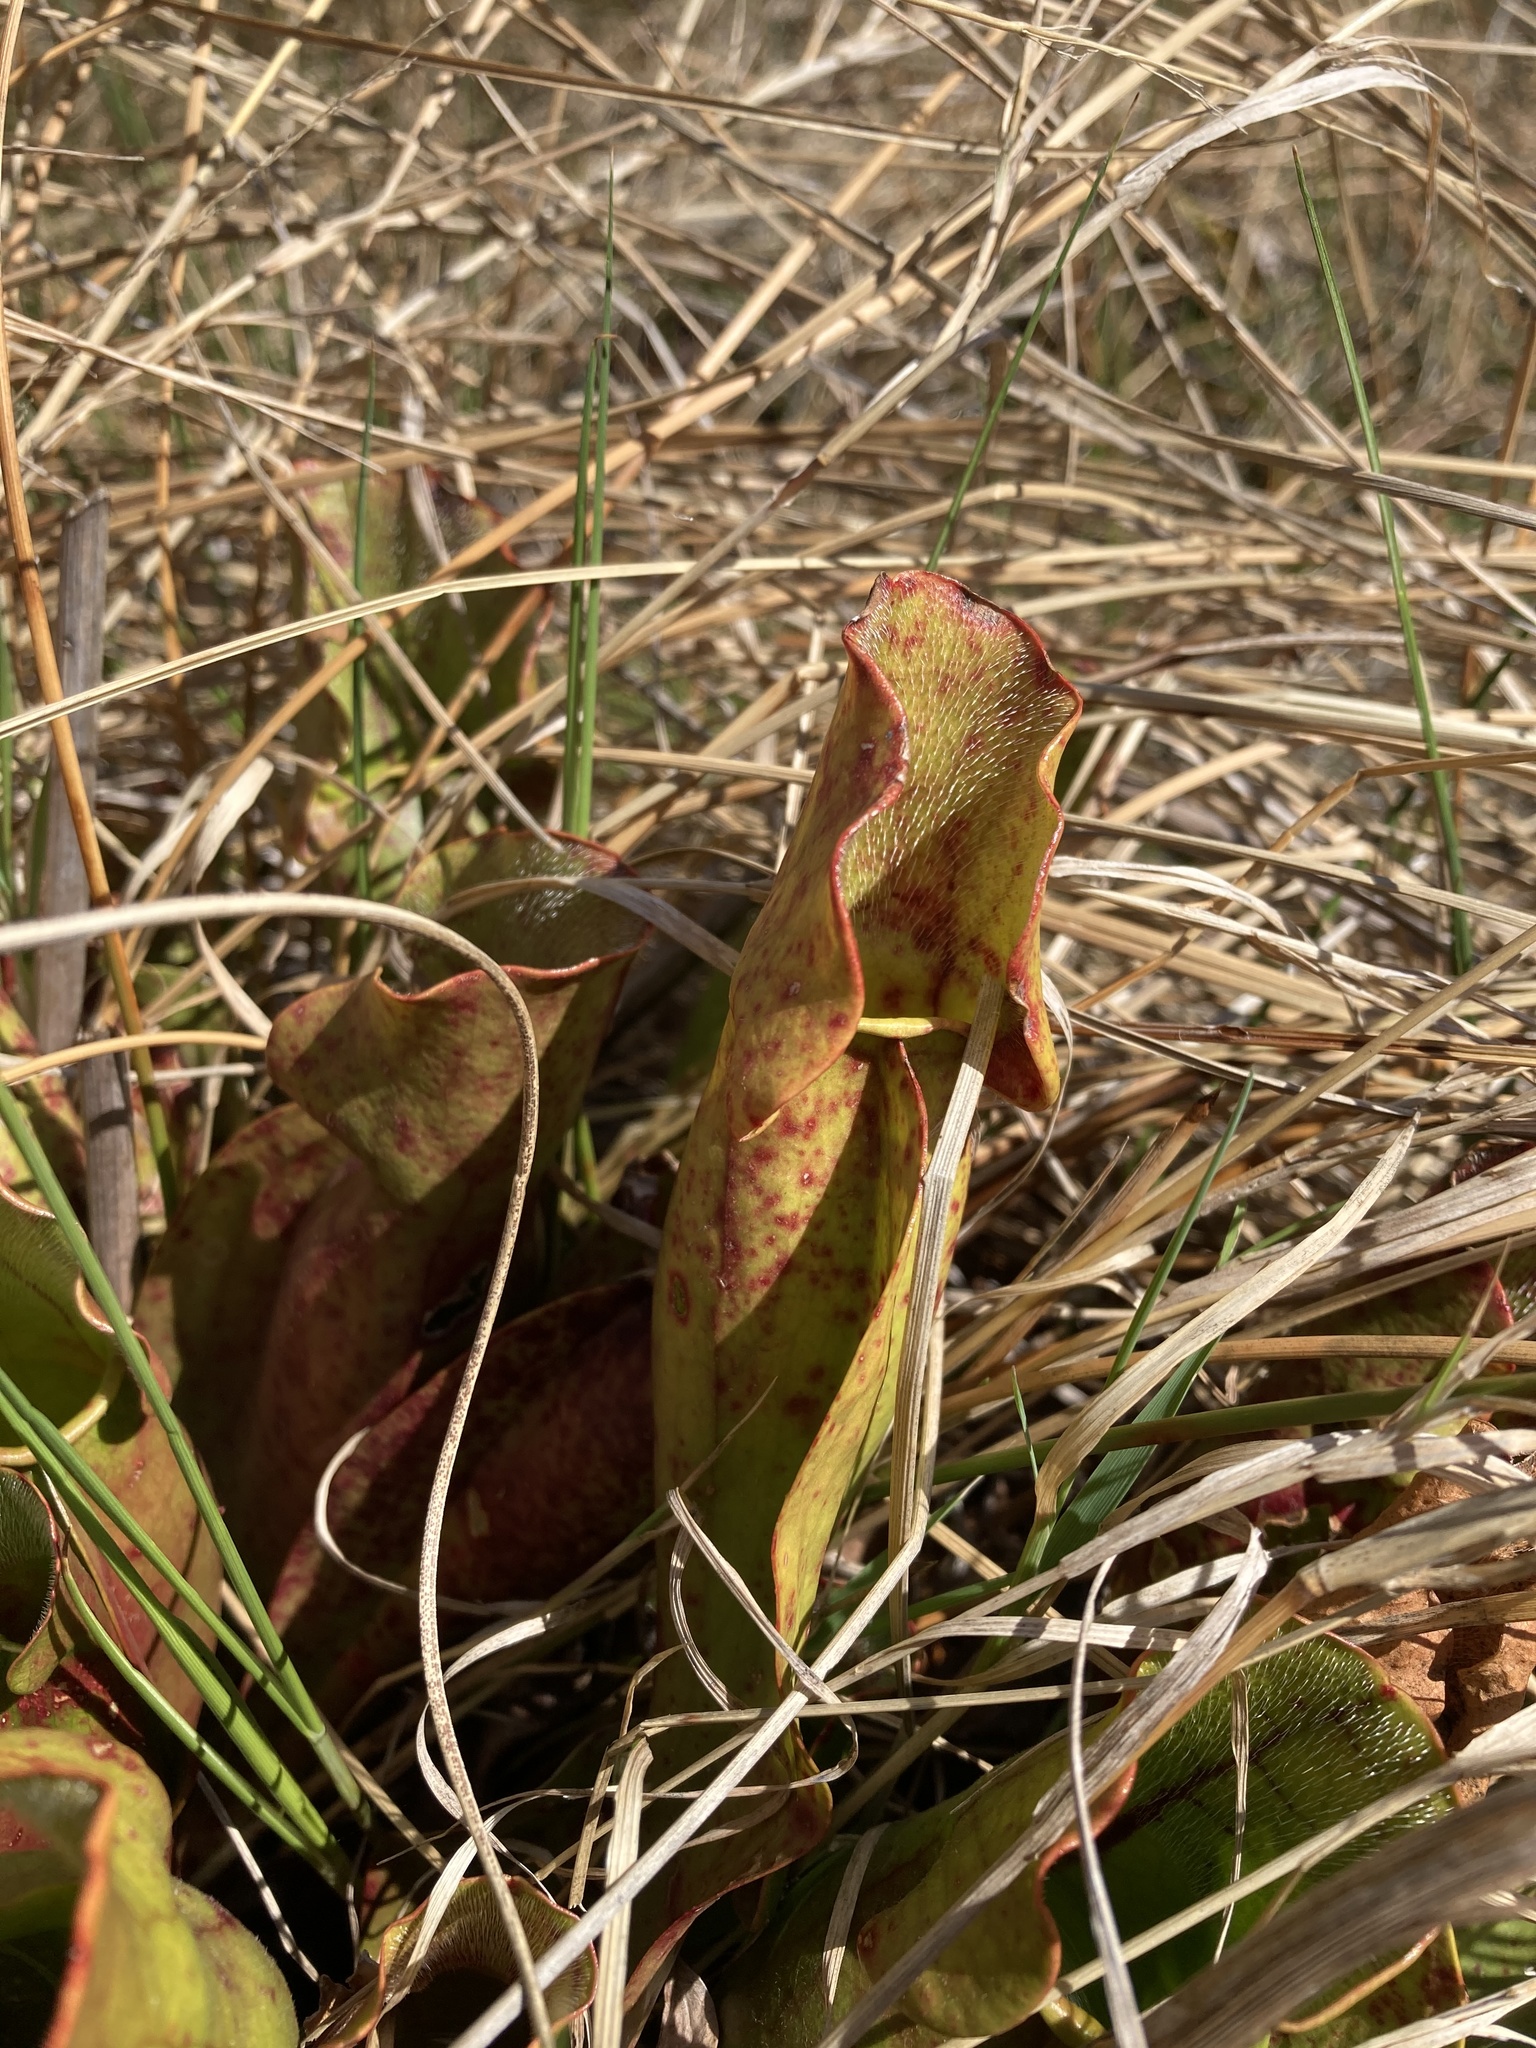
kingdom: Plantae
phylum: Tracheophyta
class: Magnoliopsida
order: Ericales
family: Sarraceniaceae
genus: Sarracenia
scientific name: Sarracenia purpurea
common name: Pitcherplant
